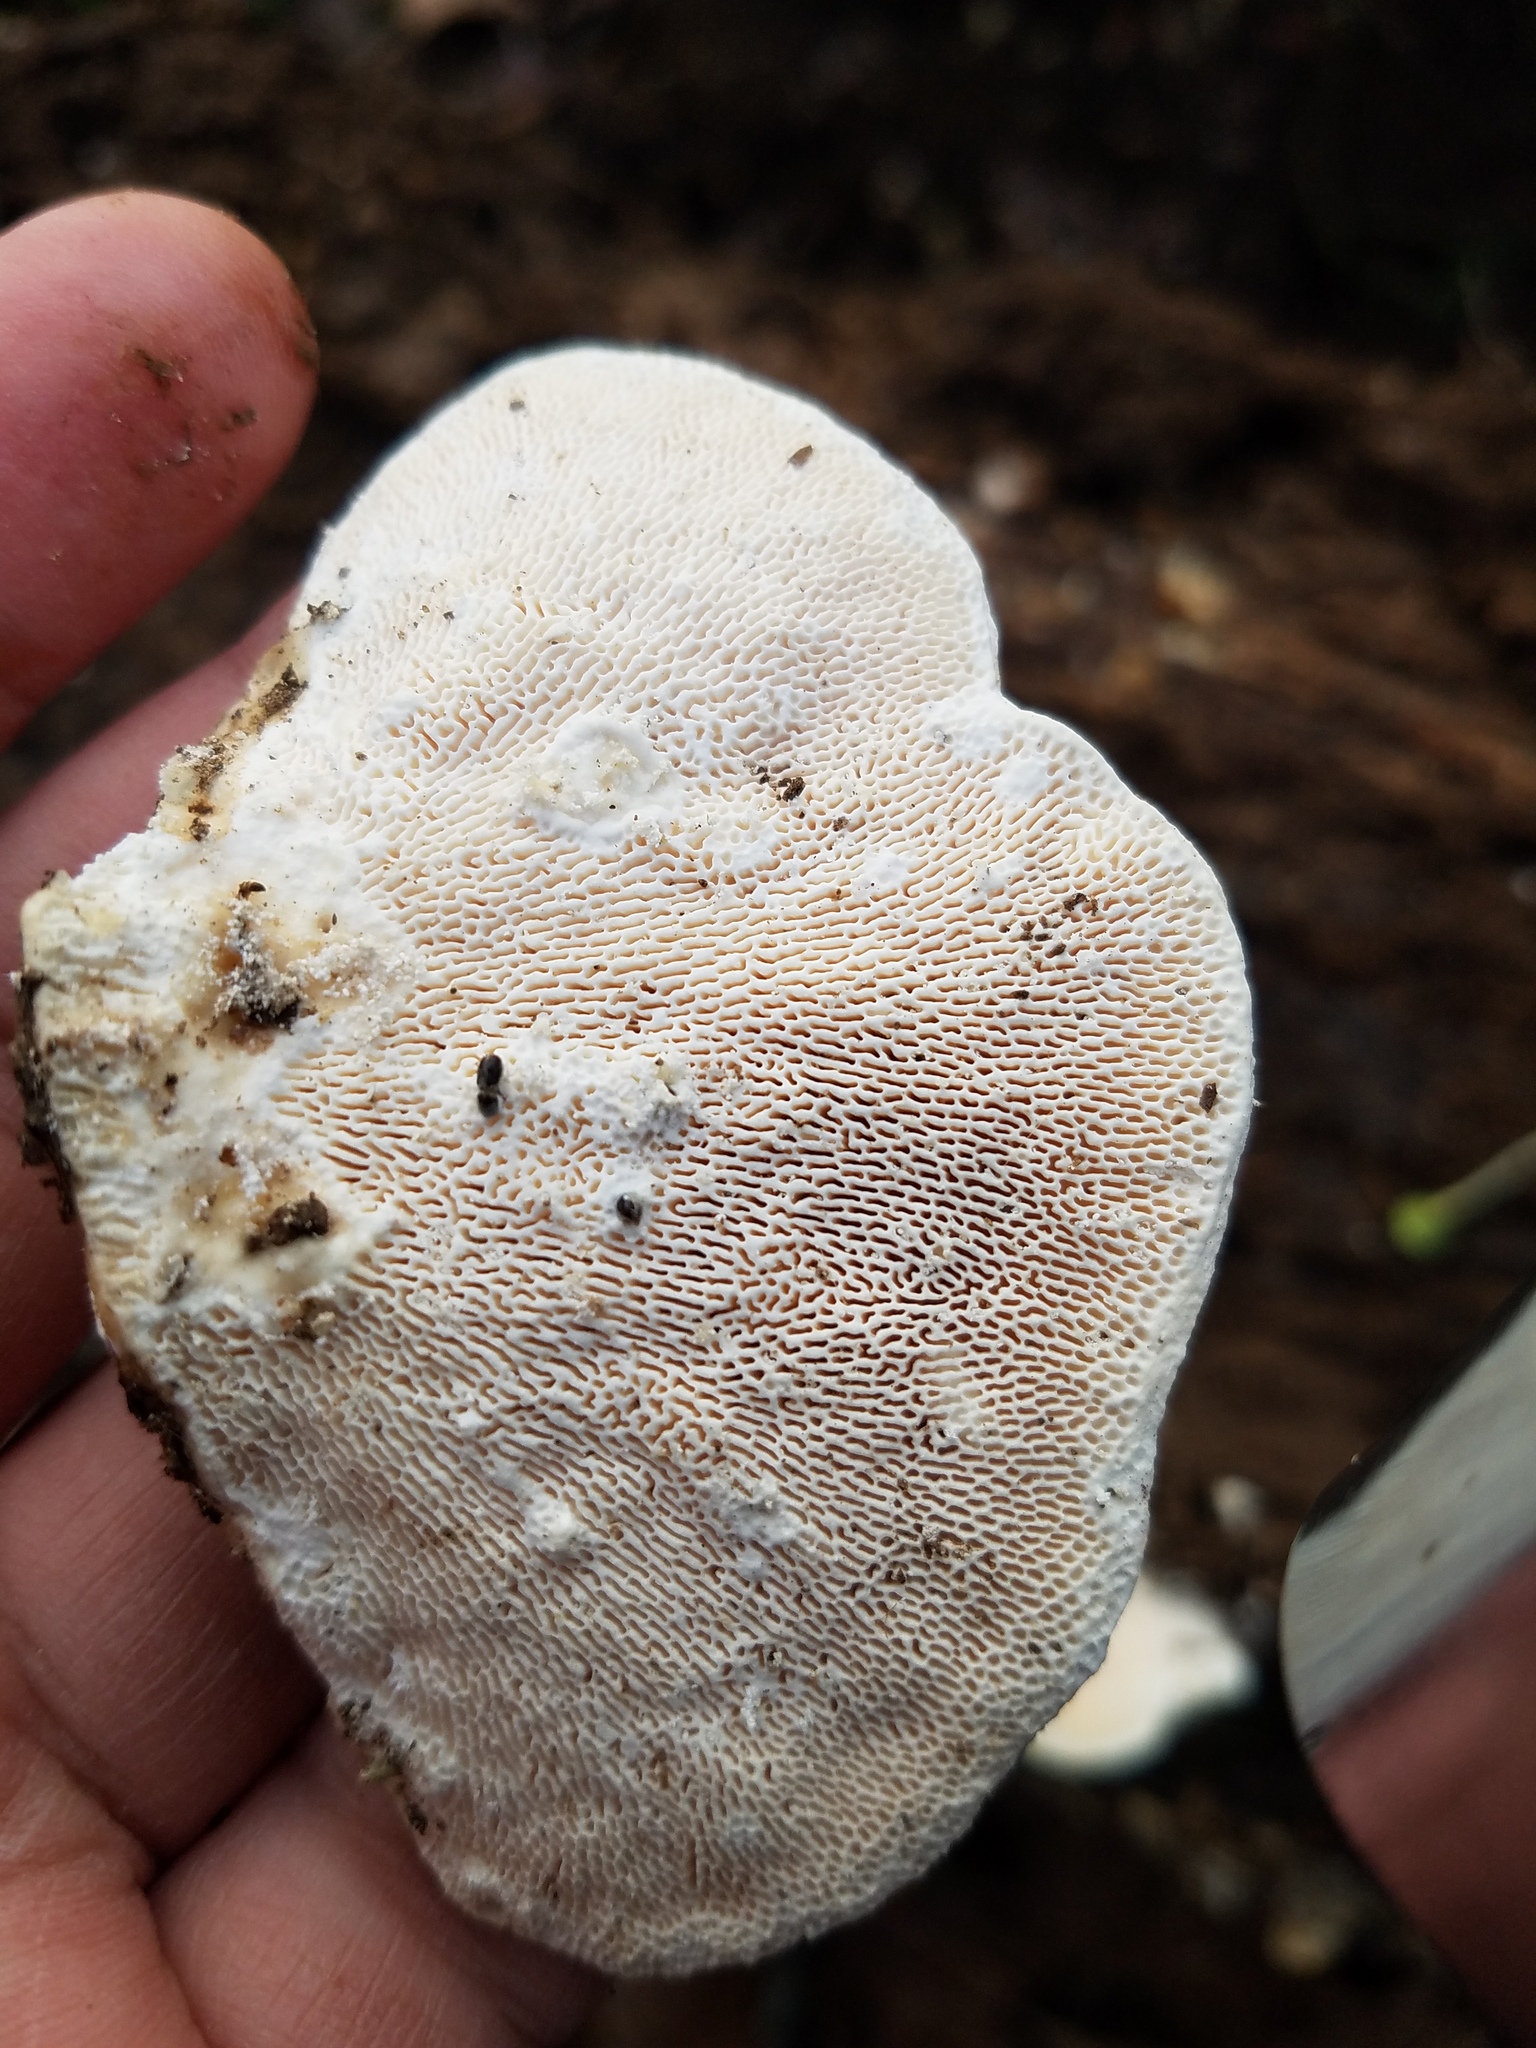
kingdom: Fungi
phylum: Basidiomycota
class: Agaricomycetes
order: Polyporales
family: Polyporaceae
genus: Trametes
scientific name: Trametes gibbosa
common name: Lumpy bracket
